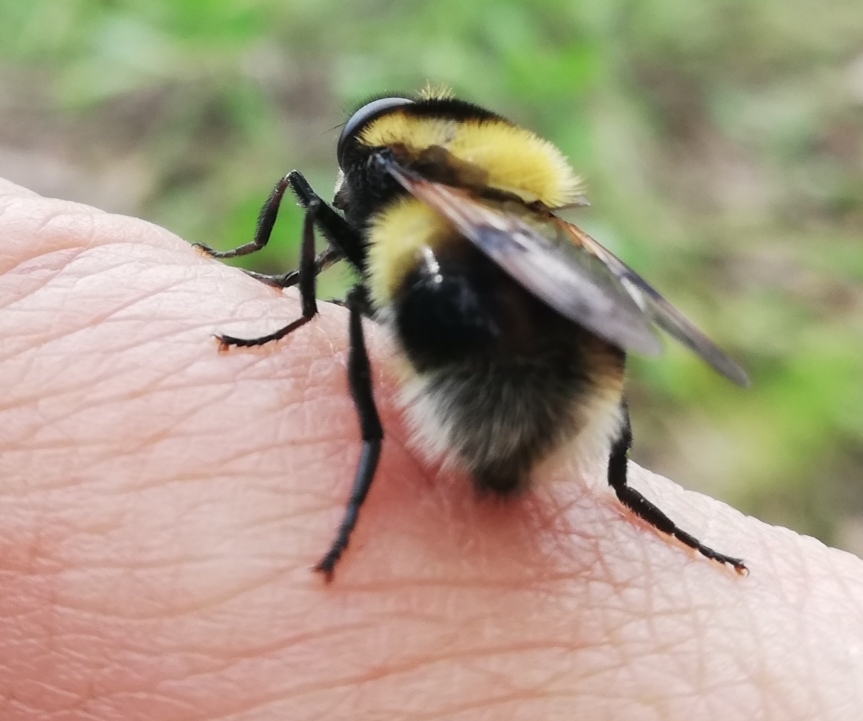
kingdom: Animalia
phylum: Arthropoda
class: Insecta
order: Diptera
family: Syrphidae
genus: Volucella
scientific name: Volucella bombylans
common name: Bumble bee hover fly
